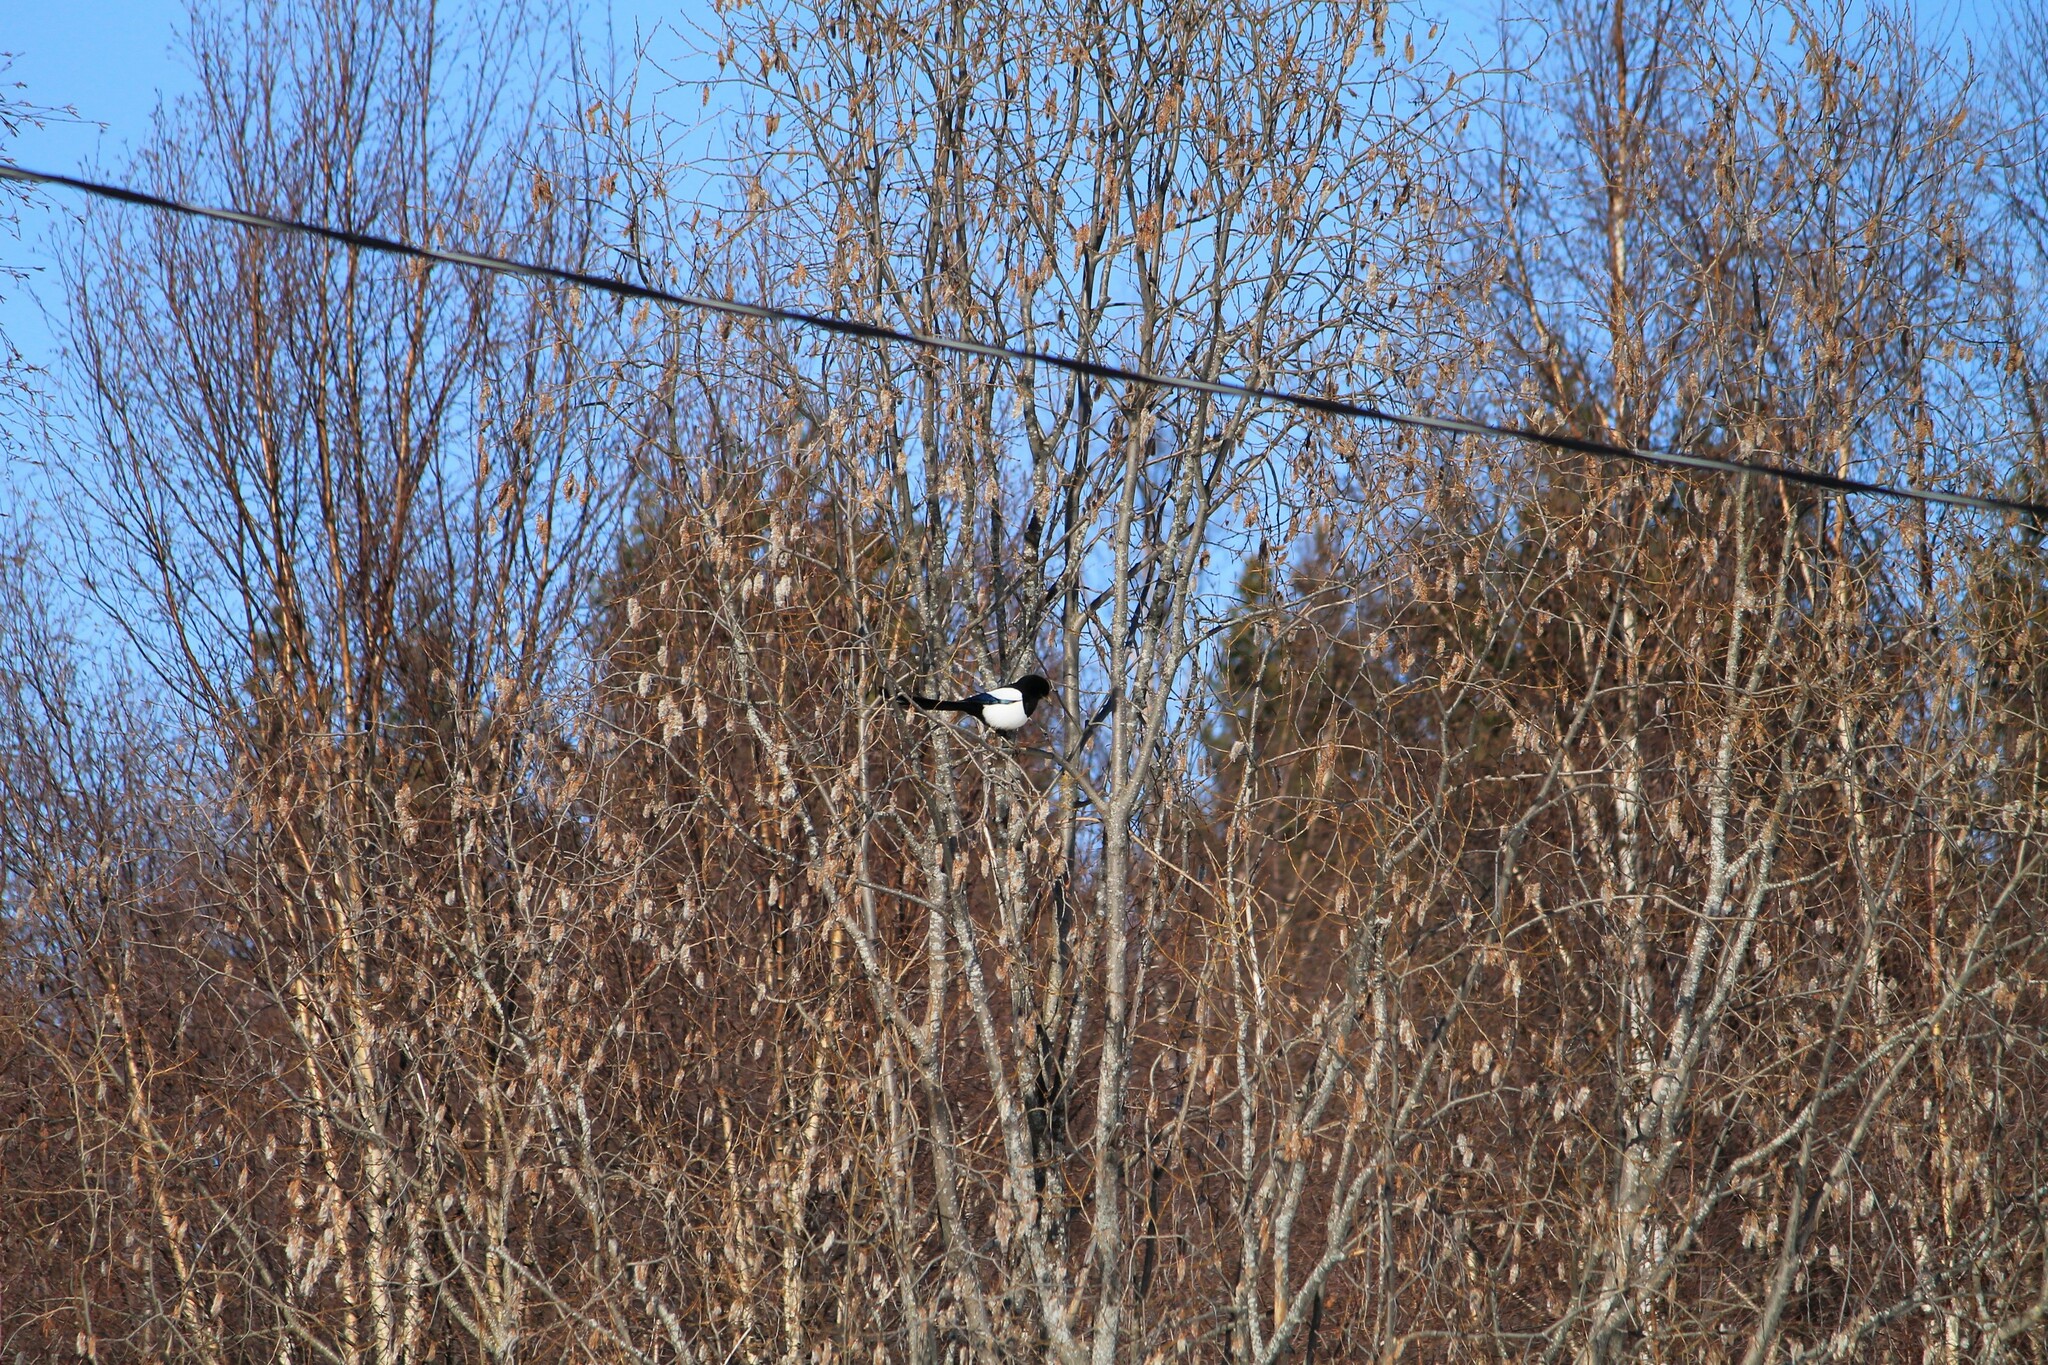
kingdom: Animalia
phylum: Chordata
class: Aves
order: Passeriformes
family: Corvidae
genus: Pica
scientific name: Pica pica
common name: Eurasian magpie
